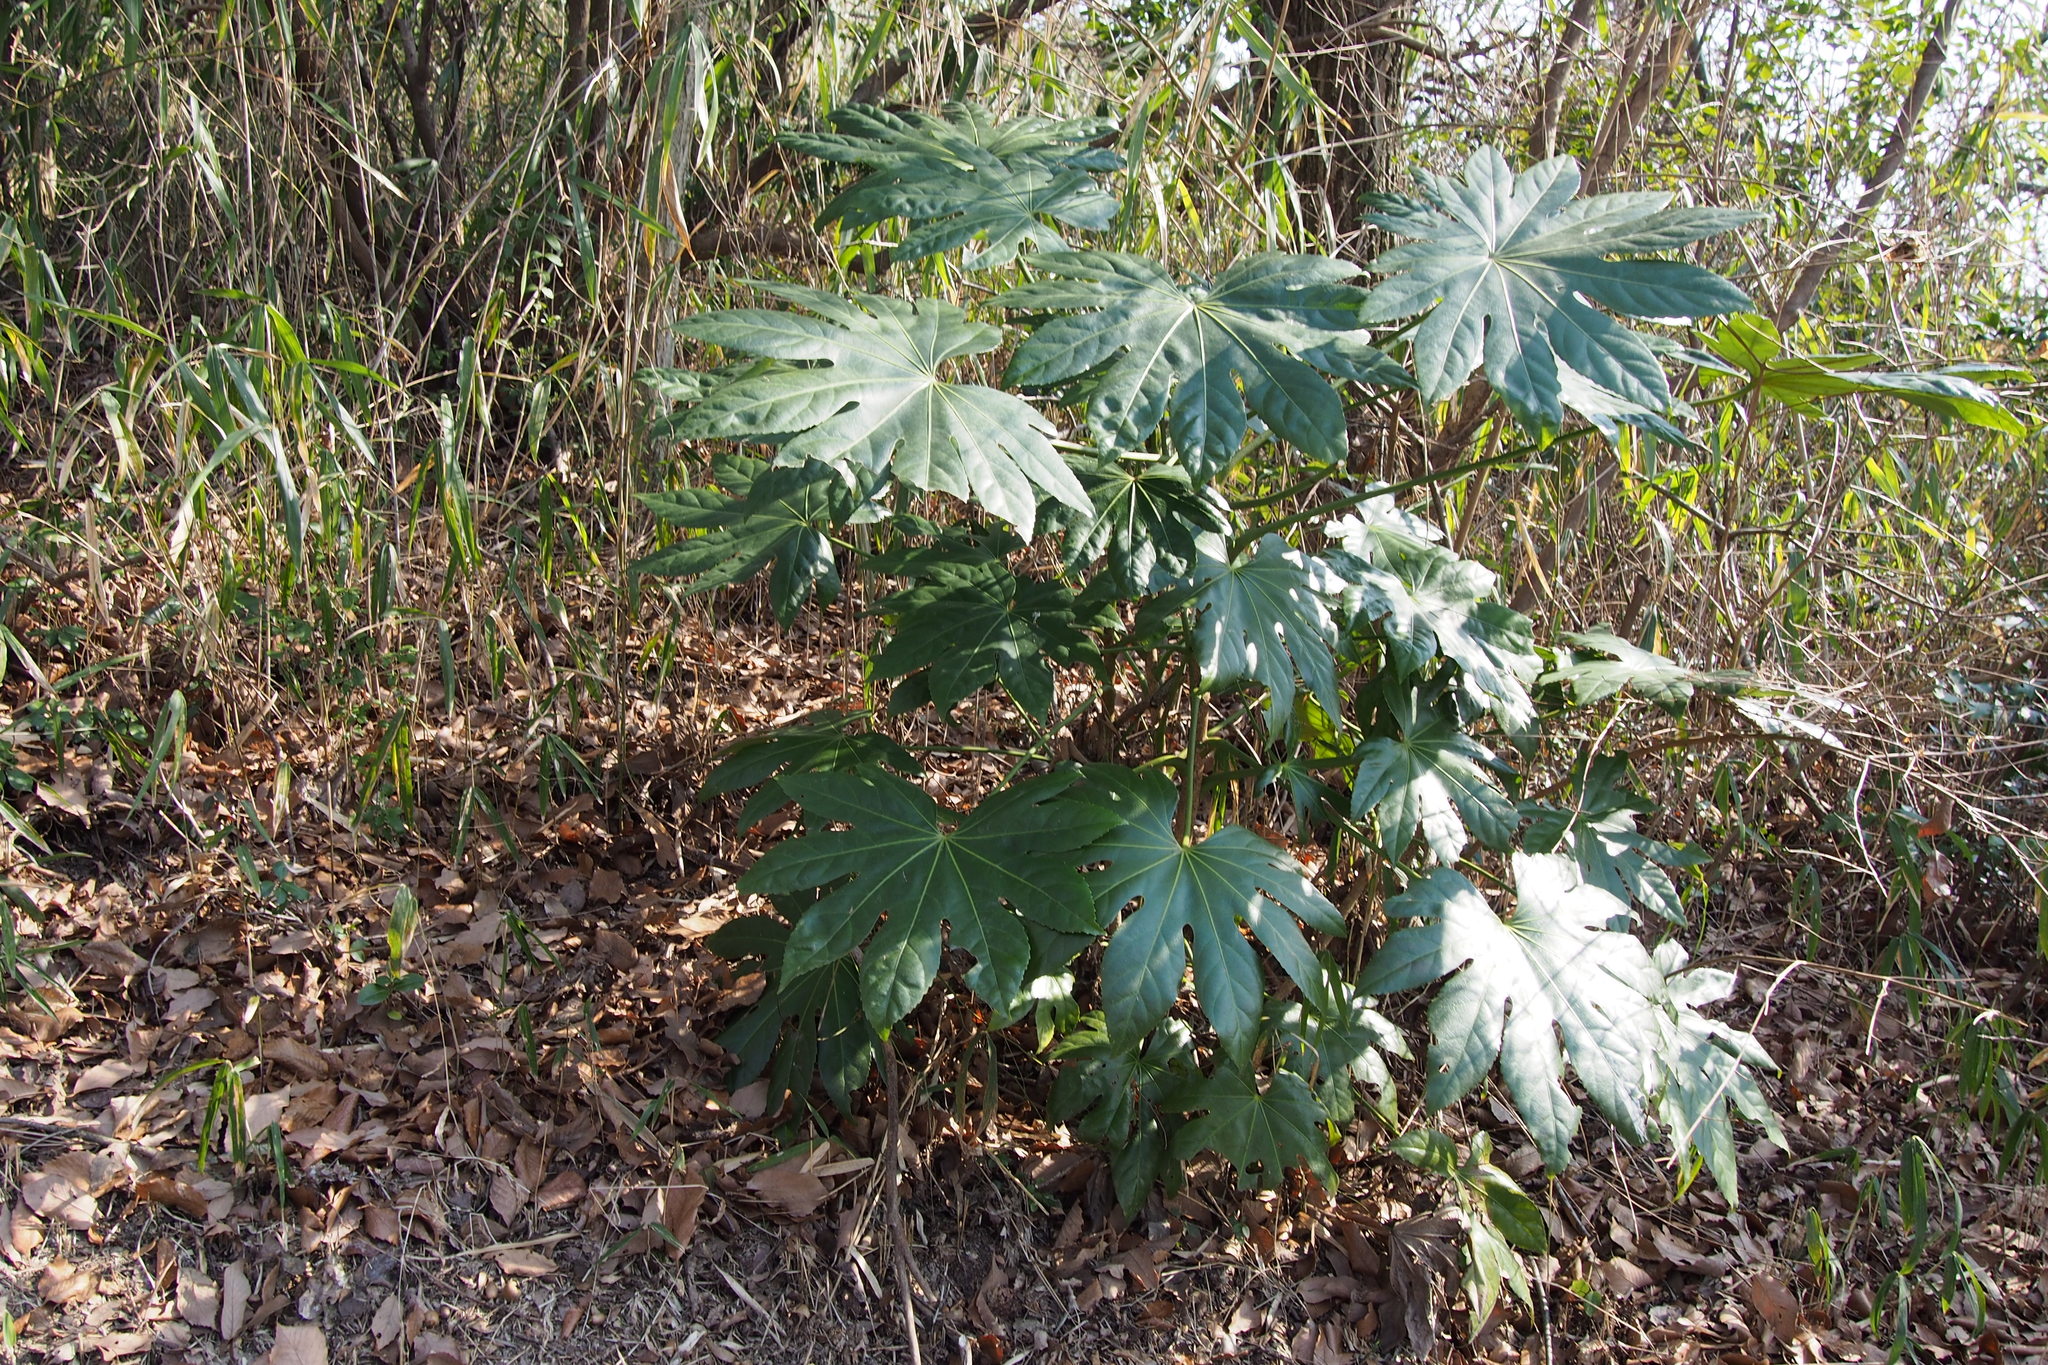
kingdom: Plantae
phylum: Tracheophyta
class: Magnoliopsida
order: Apiales
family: Araliaceae
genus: Fatsia
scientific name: Fatsia japonica
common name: Fatsia
